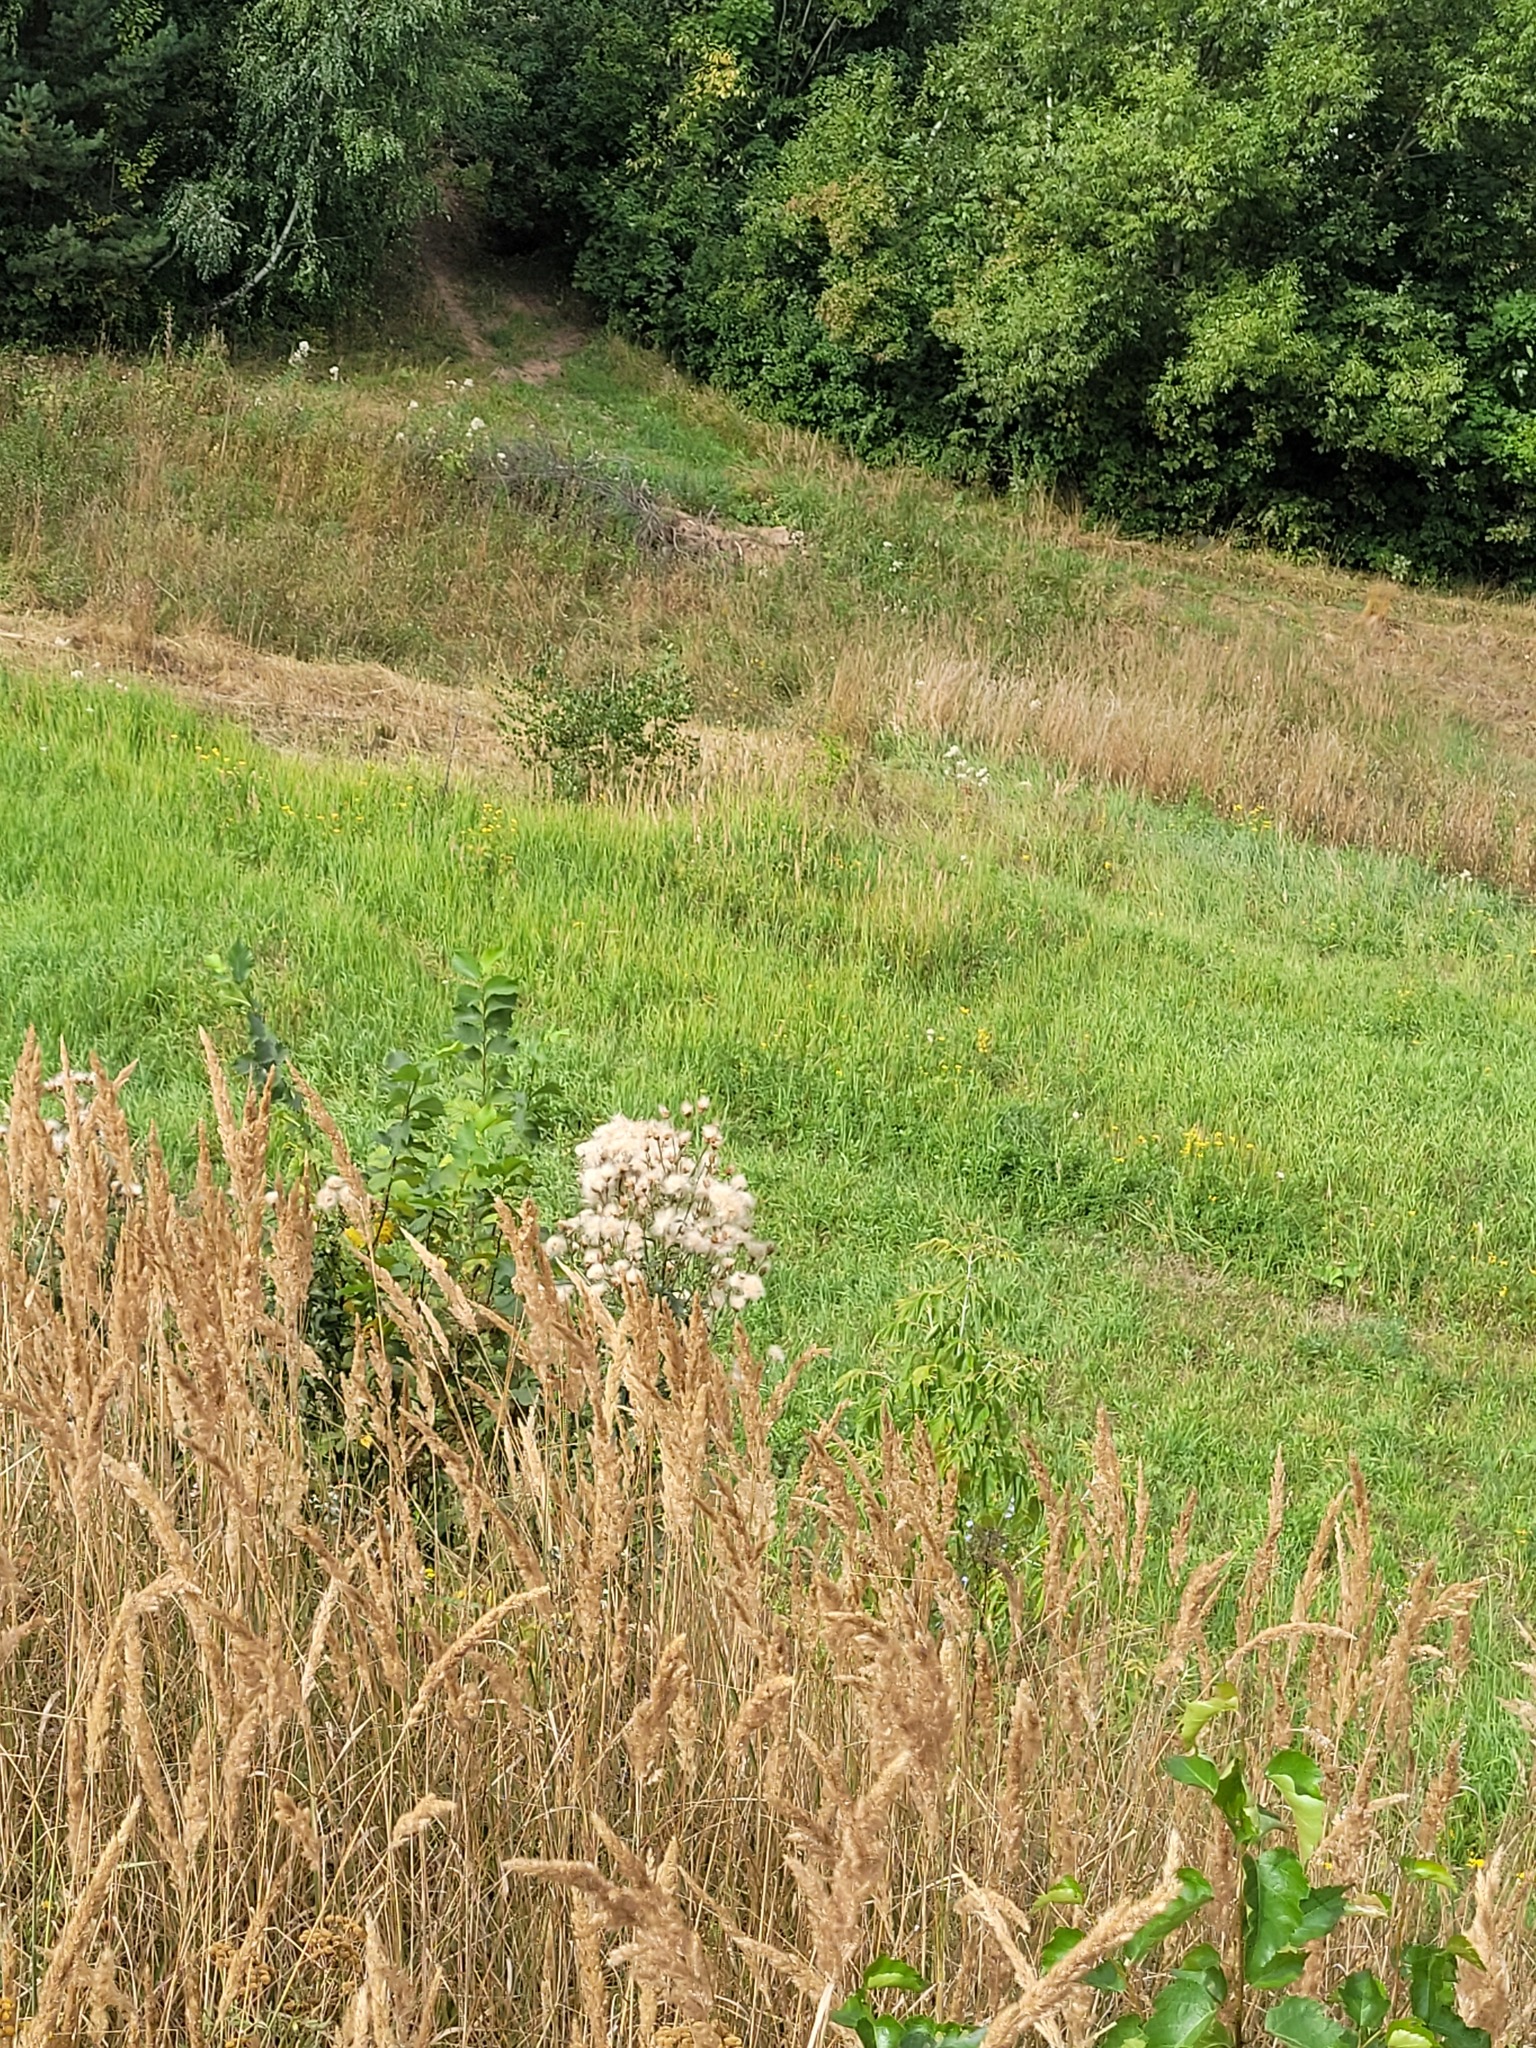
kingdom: Plantae
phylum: Tracheophyta
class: Magnoliopsida
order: Asterales
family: Asteraceae
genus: Cirsium
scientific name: Cirsium arvense
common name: Creeping thistle
